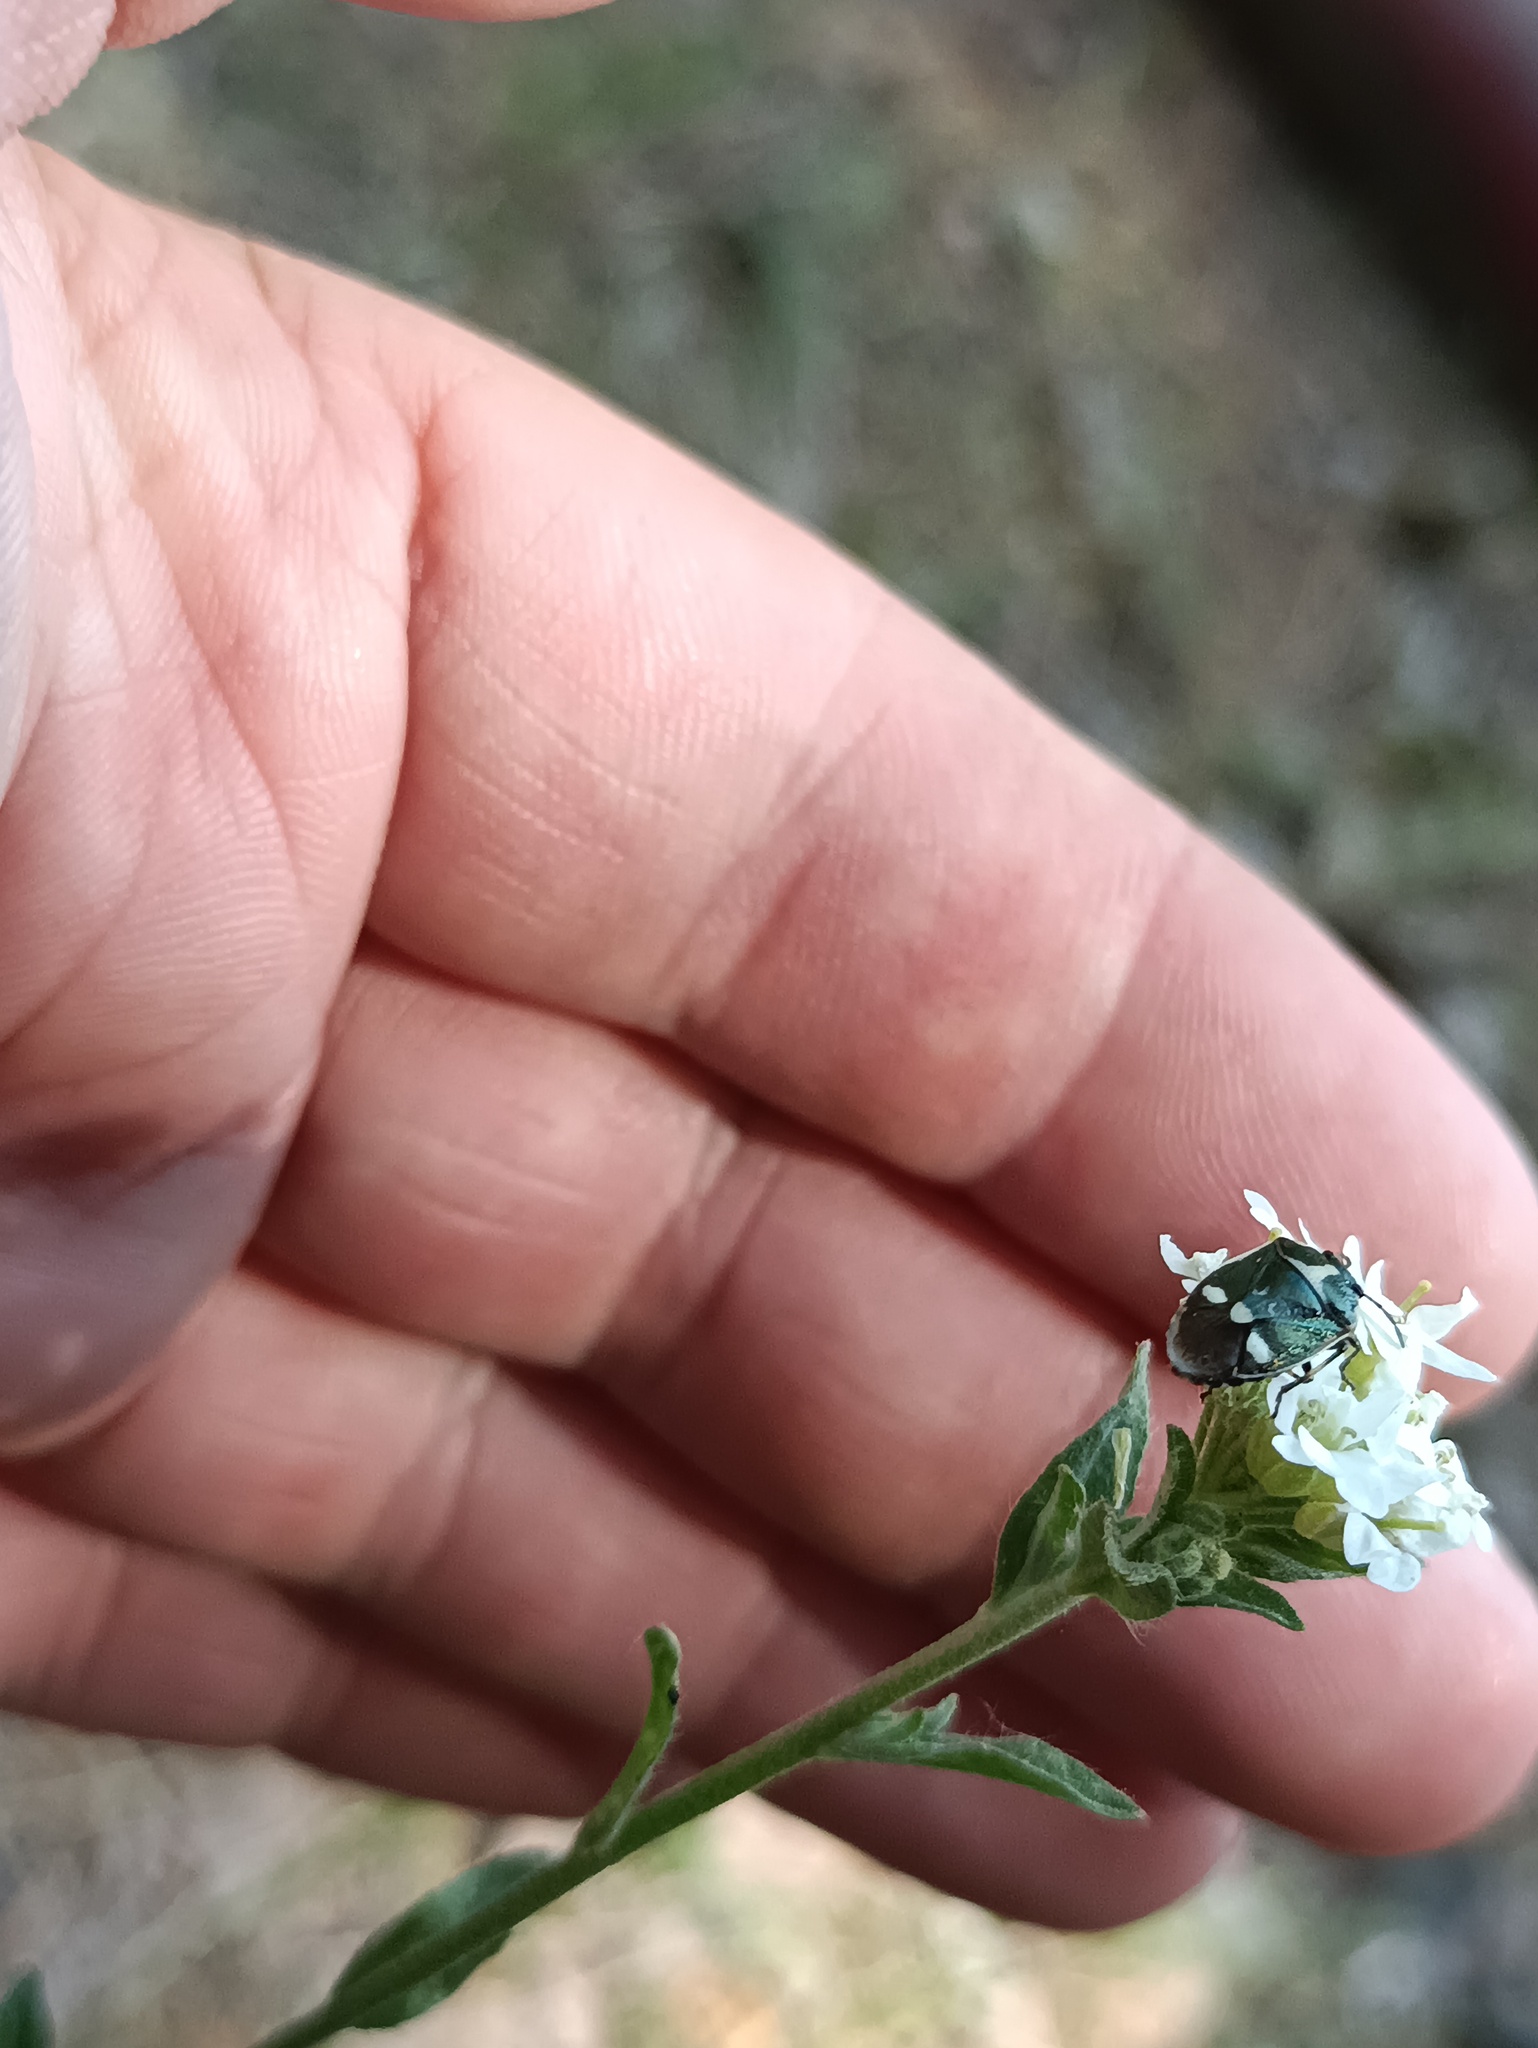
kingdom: Animalia
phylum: Arthropoda
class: Insecta
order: Hemiptera
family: Pentatomidae
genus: Eurydema
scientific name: Eurydema oleracea
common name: Cabbage bug
